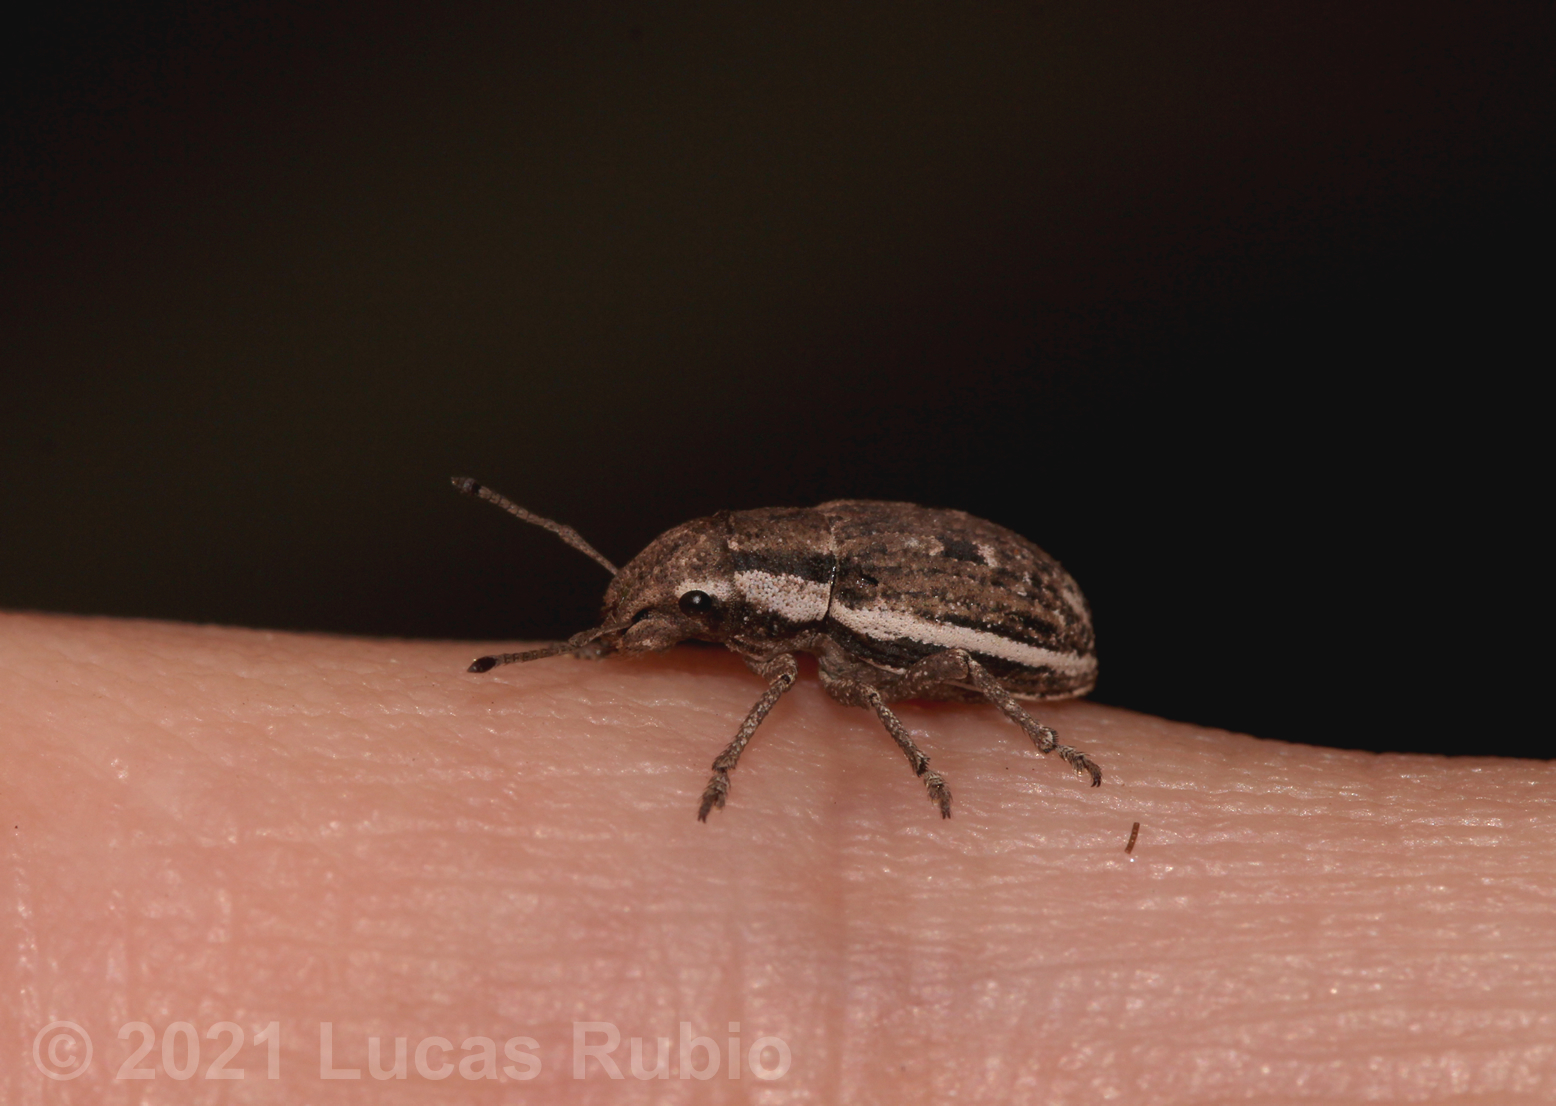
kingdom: Animalia
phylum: Arthropoda
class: Insecta
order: Coleoptera
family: Curculionidae
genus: Eurymetopus
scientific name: Eurymetopus fallax
